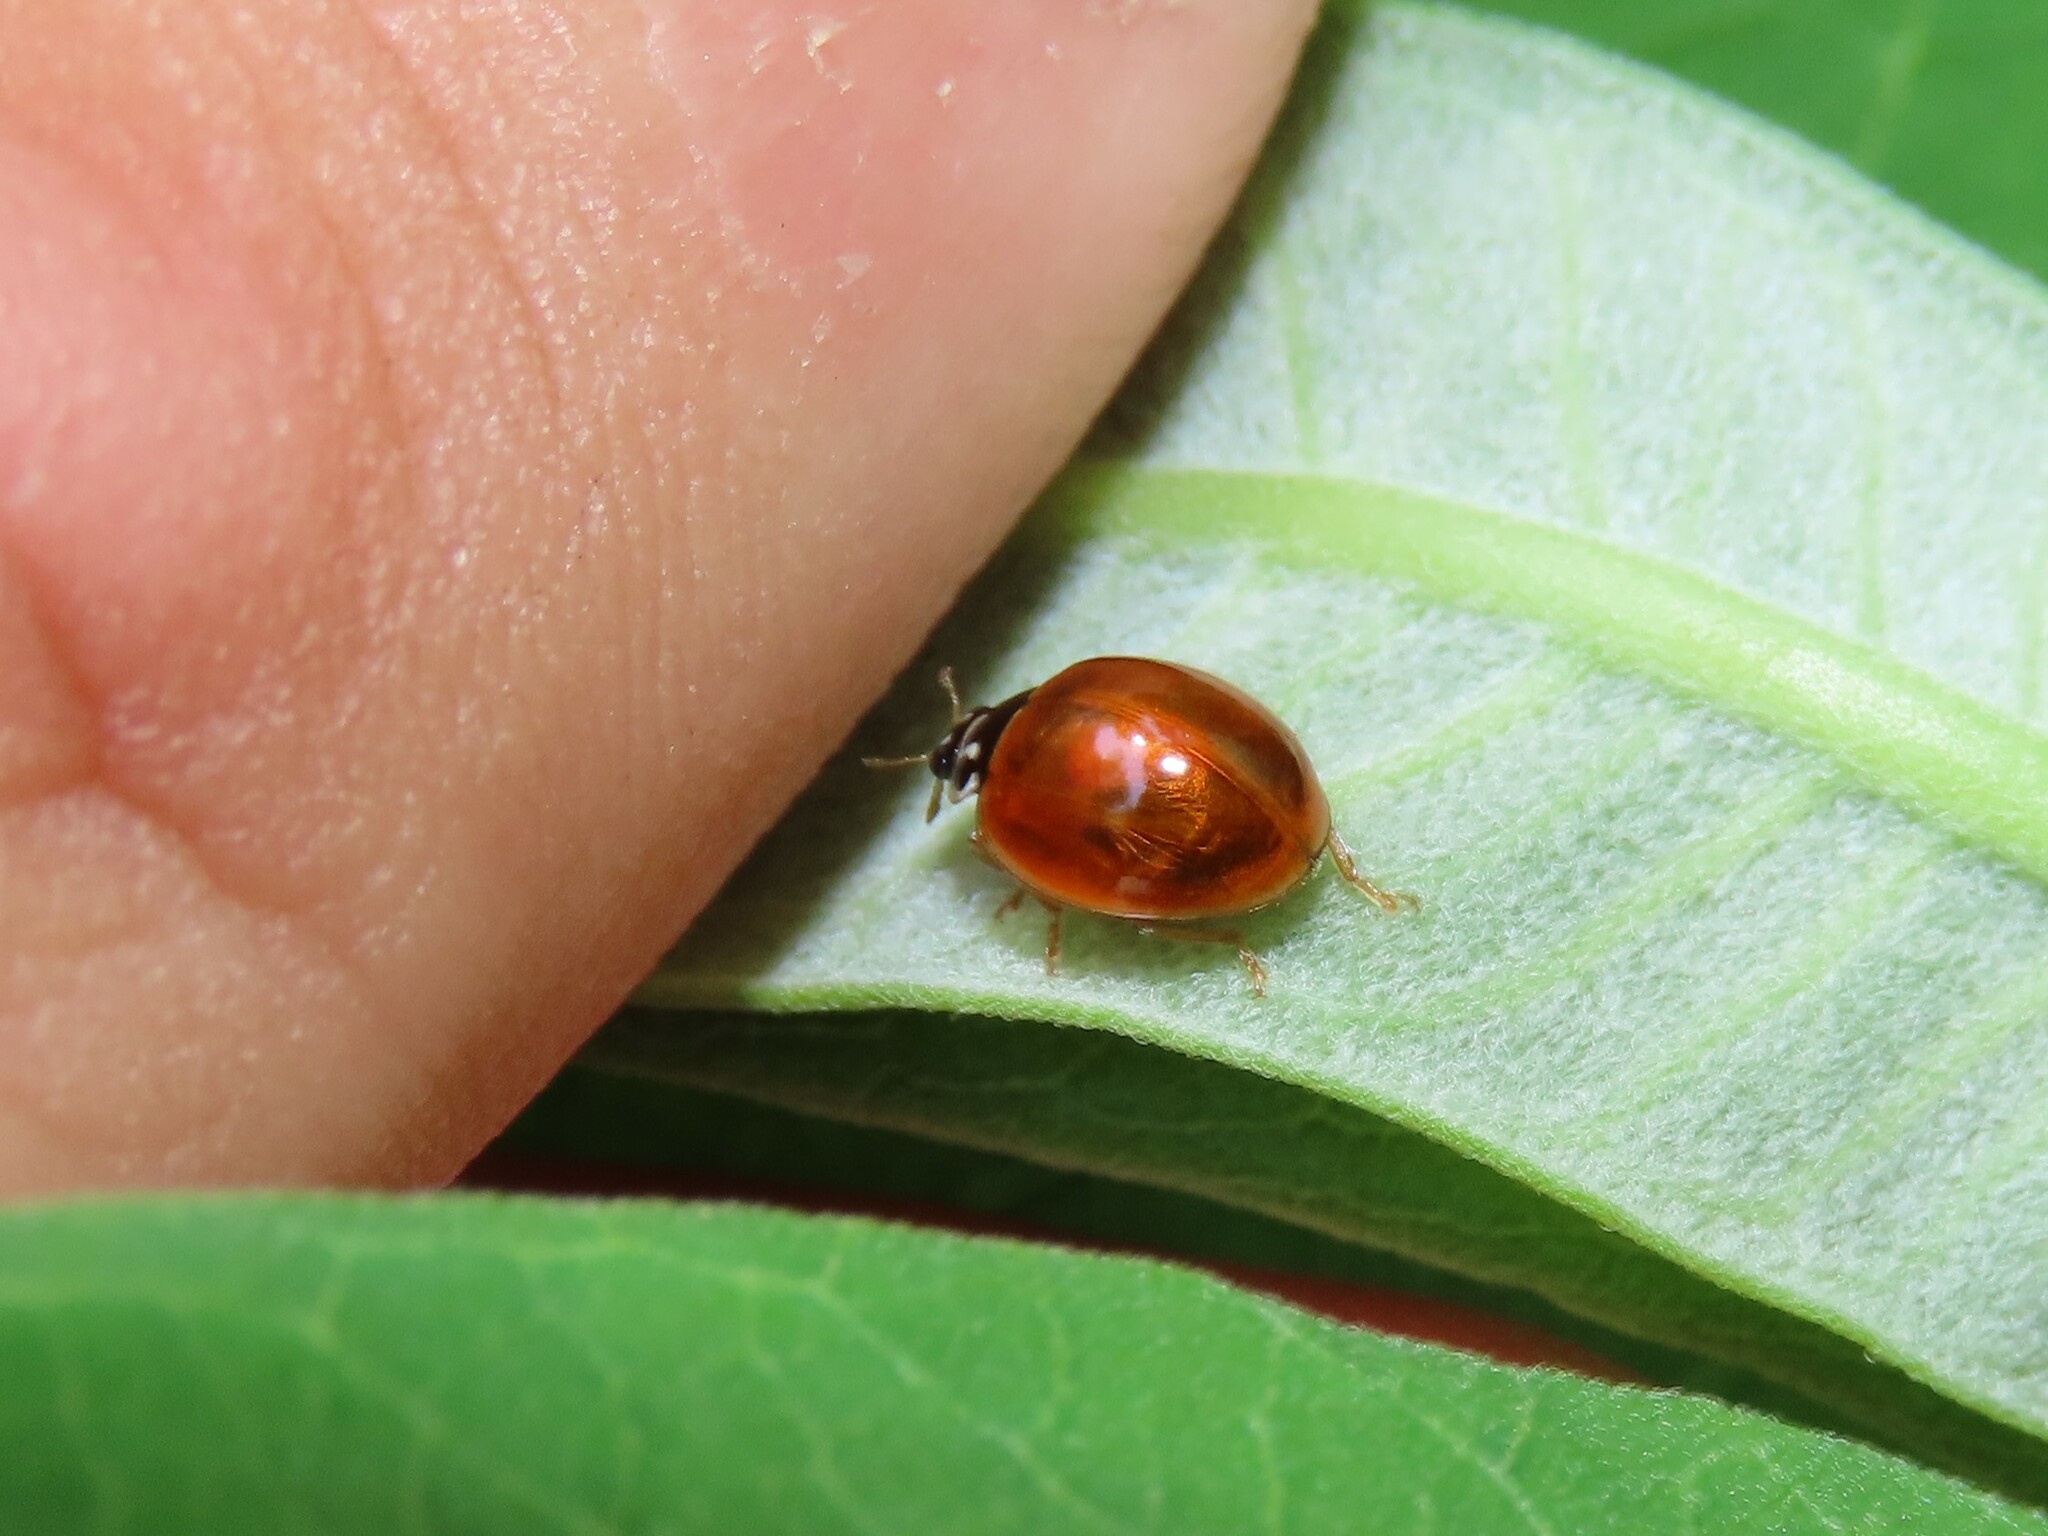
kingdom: Animalia
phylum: Arthropoda
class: Insecta
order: Coleoptera
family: Coccinellidae
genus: Cycloneda
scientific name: Cycloneda munda
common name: Polished lady beetle
